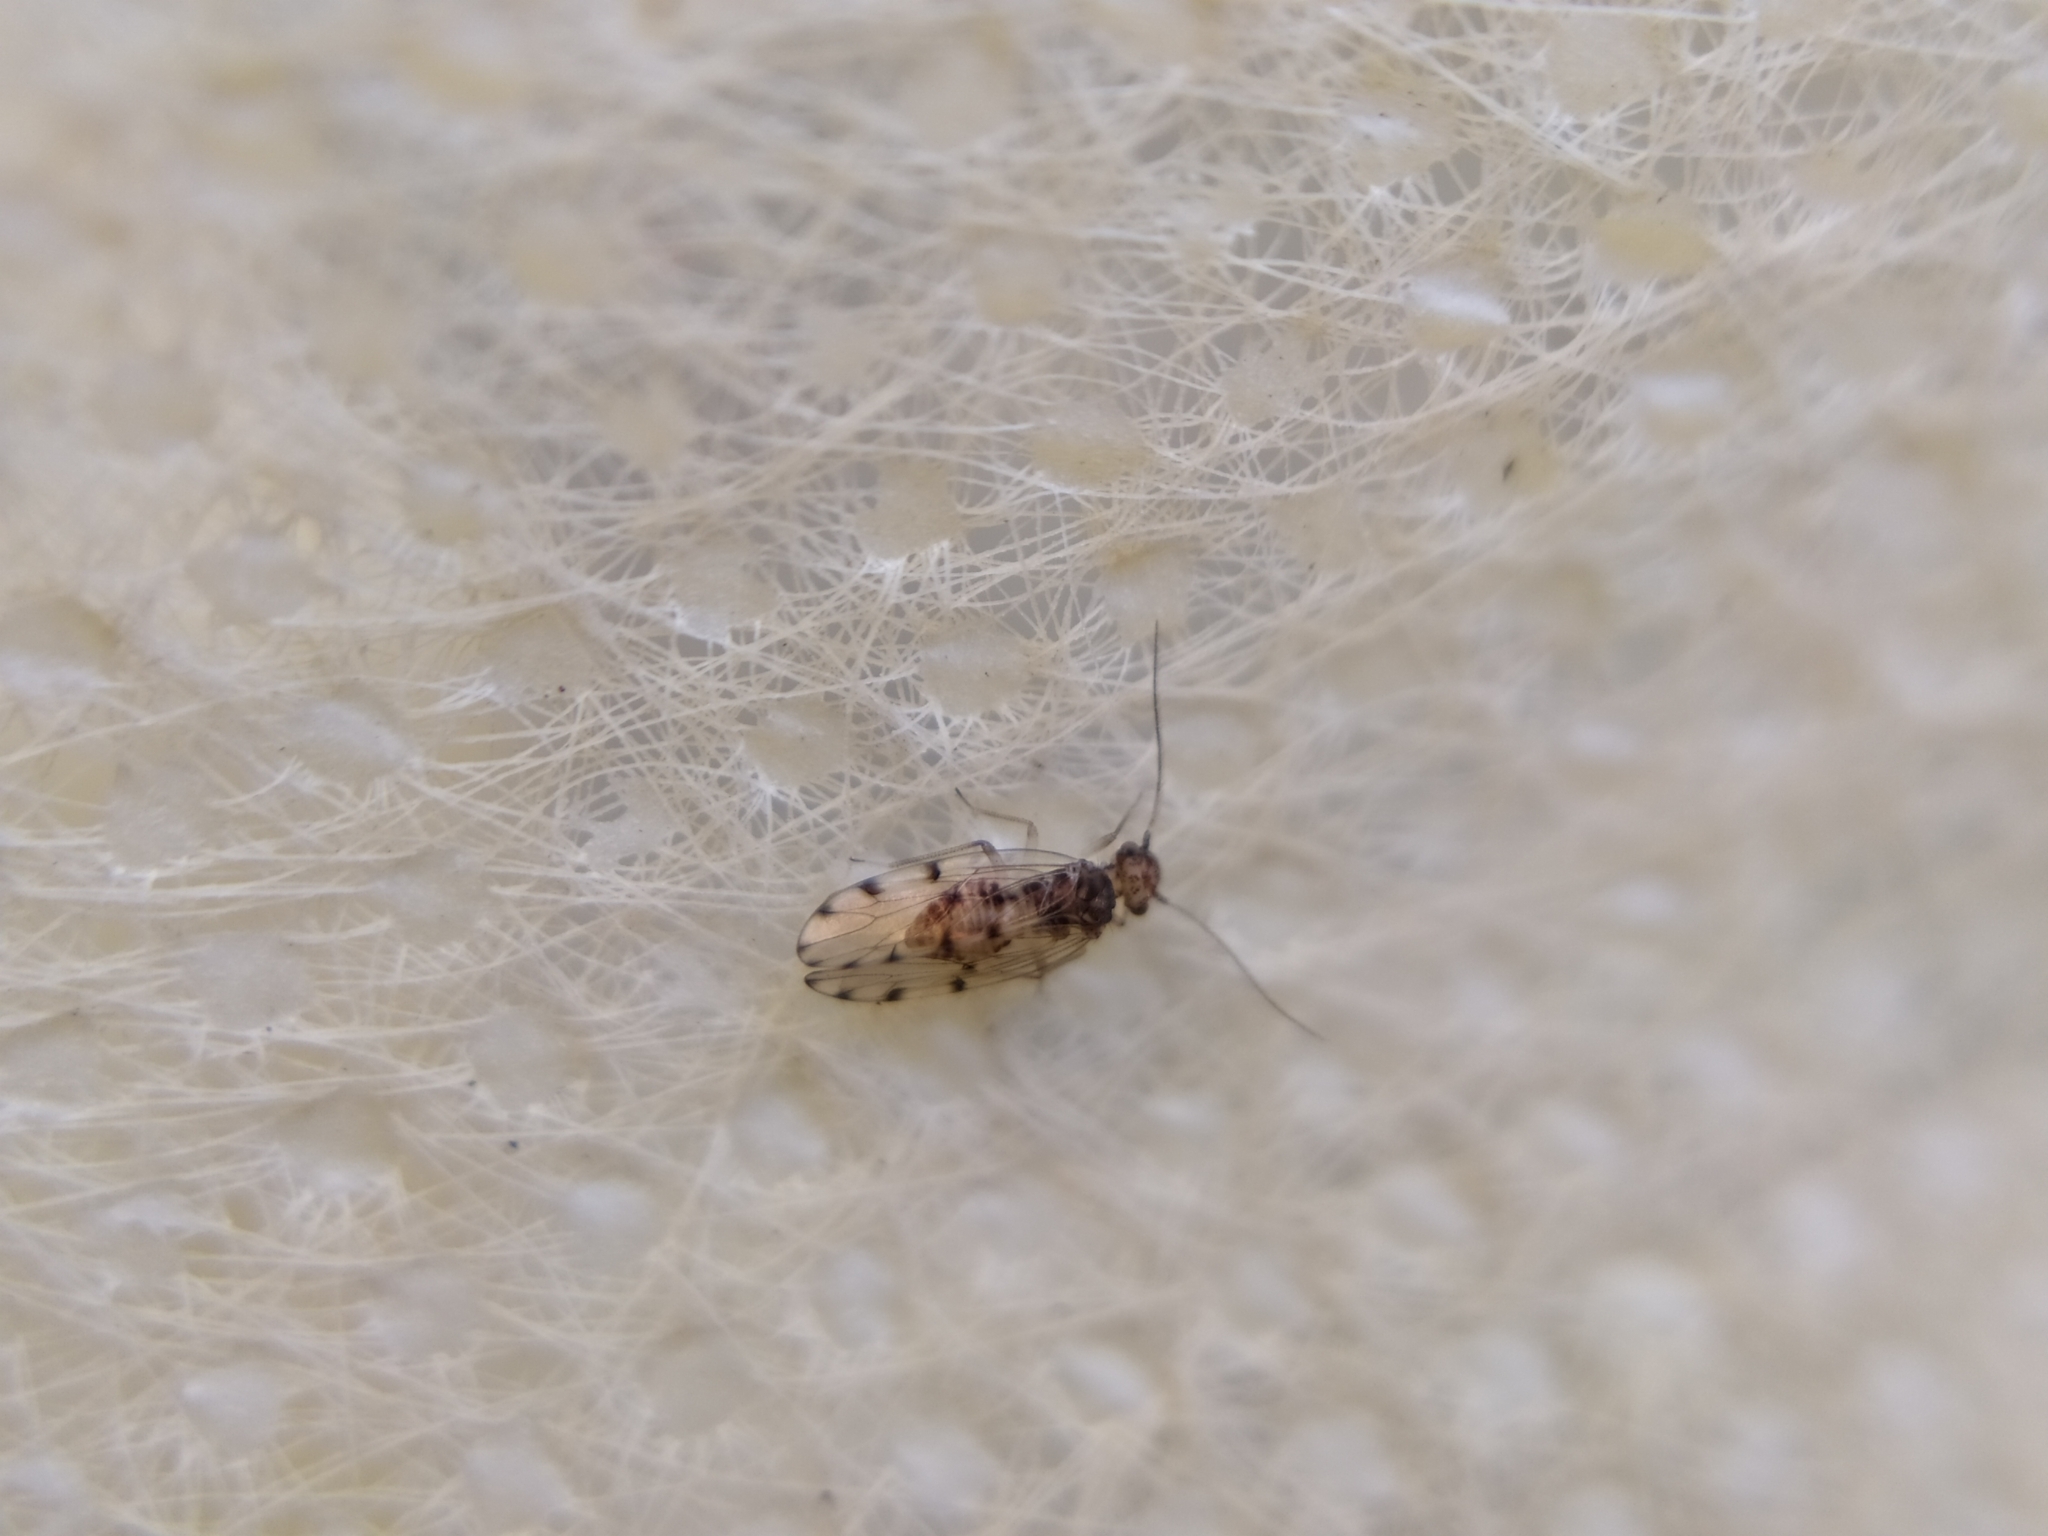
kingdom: Animalia
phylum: Arthropoda
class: Insecta
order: Psocodea
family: Ectopsocidae
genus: Ectopsocus
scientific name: Ectopsocus petersi
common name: Medium-sized bark louse
